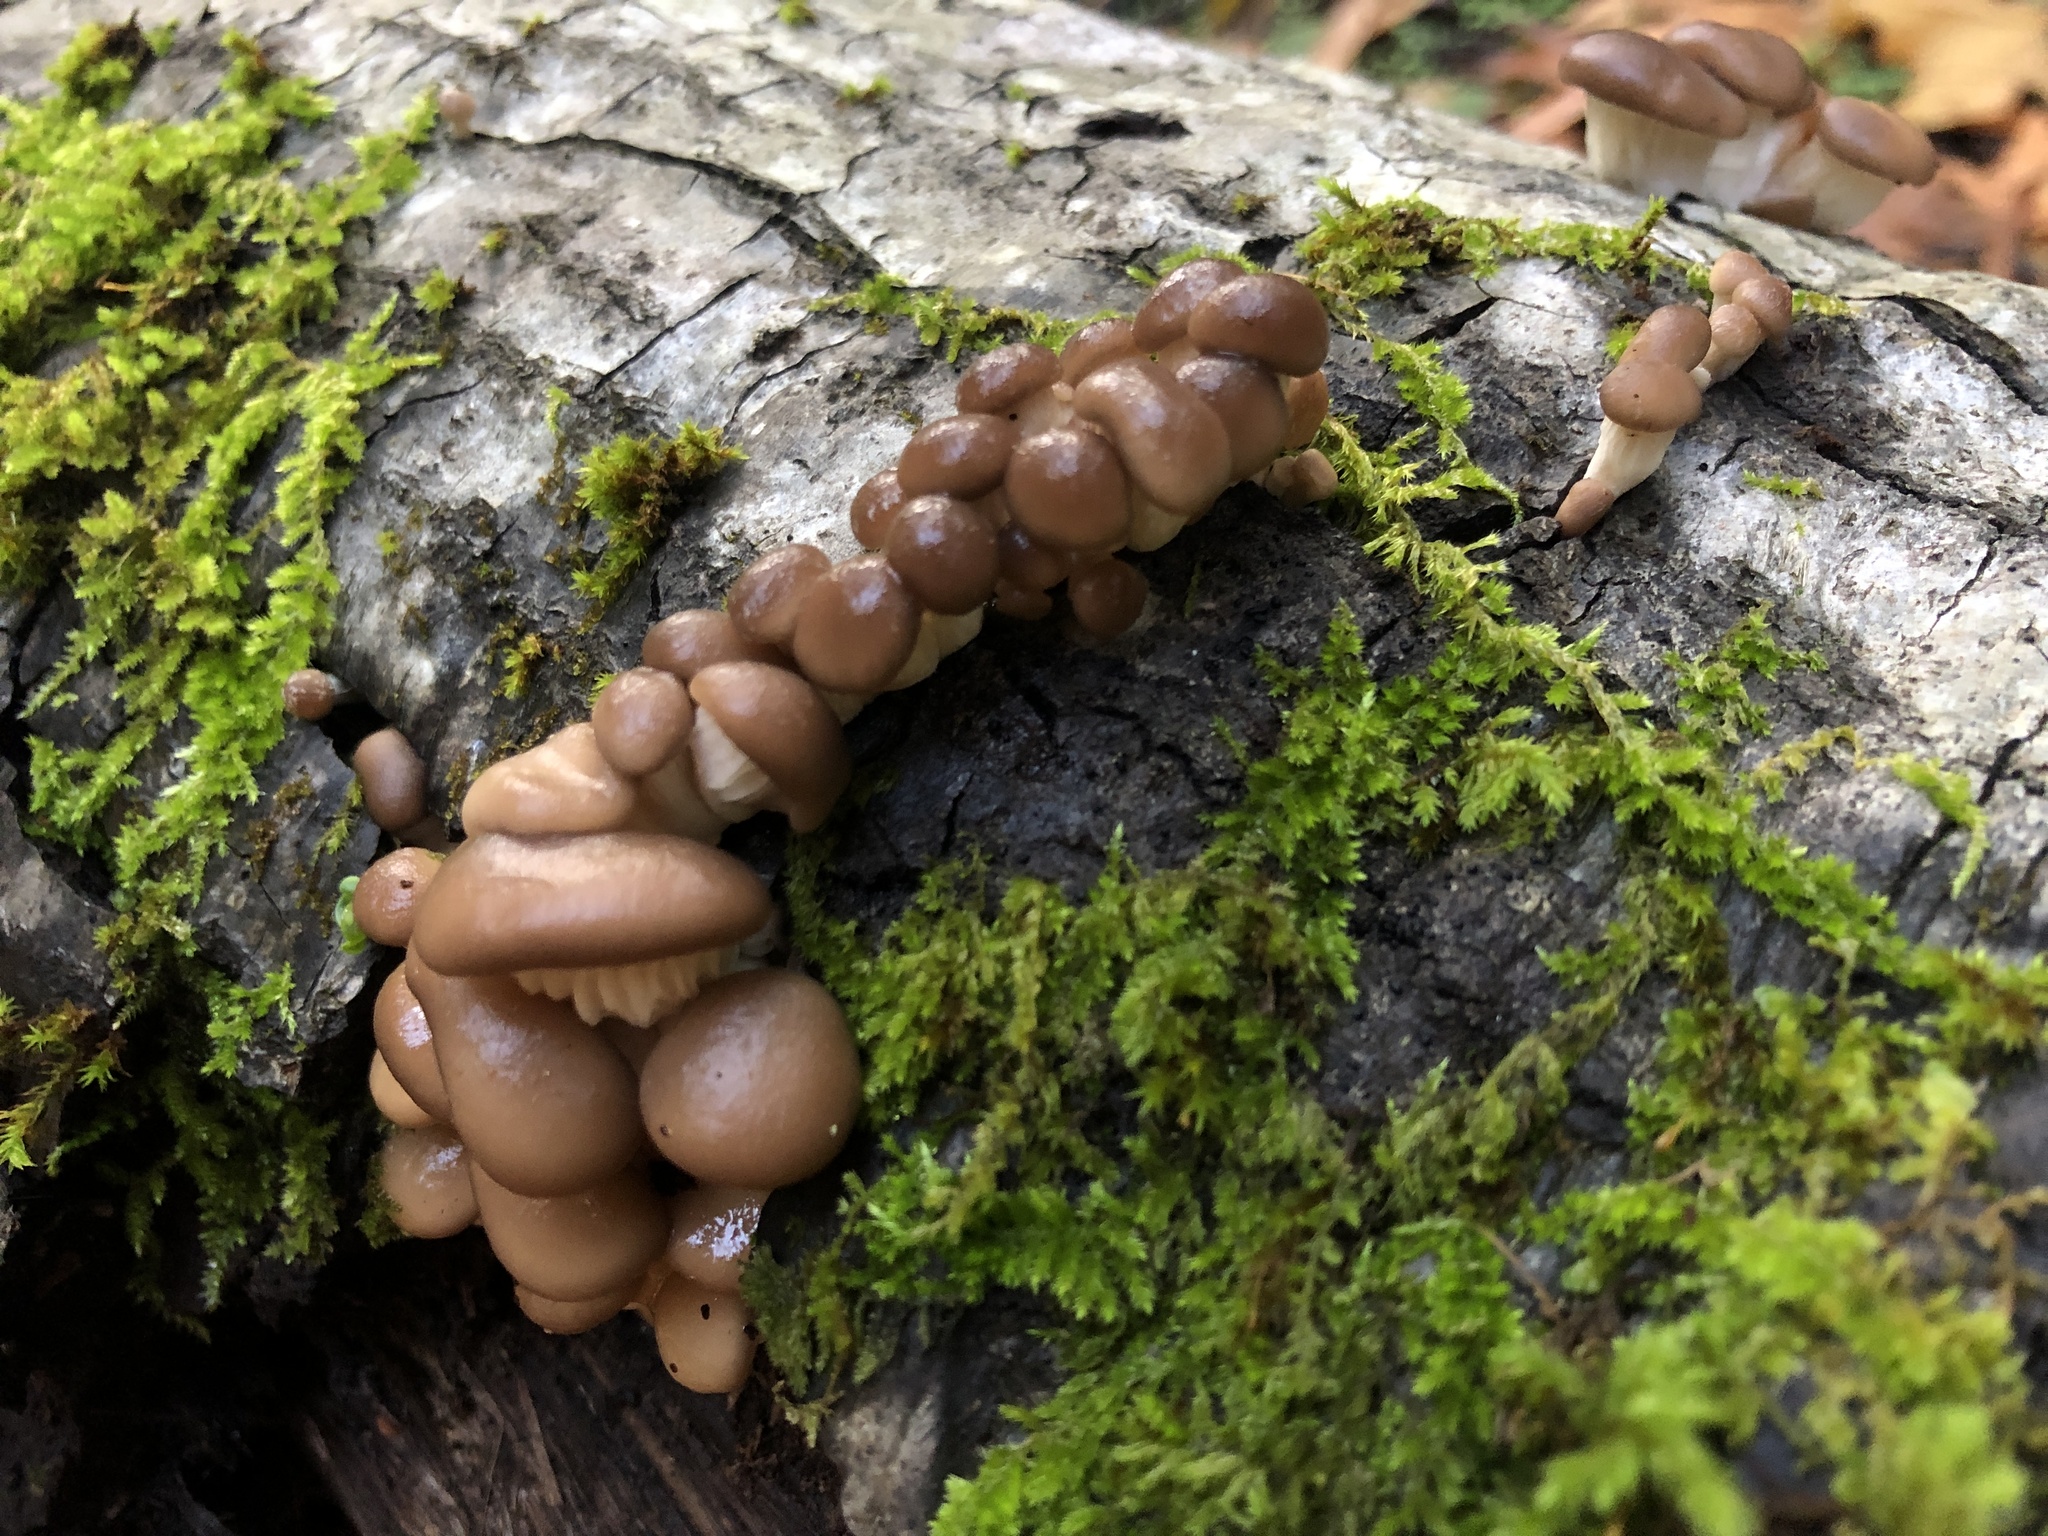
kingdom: Fungi
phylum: Basidiomycota
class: Agaricomycetes
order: Agaricales
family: Pleurotaceae
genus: Pleurotus
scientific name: Pleurotus ostreatus
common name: Oyster mushroom
